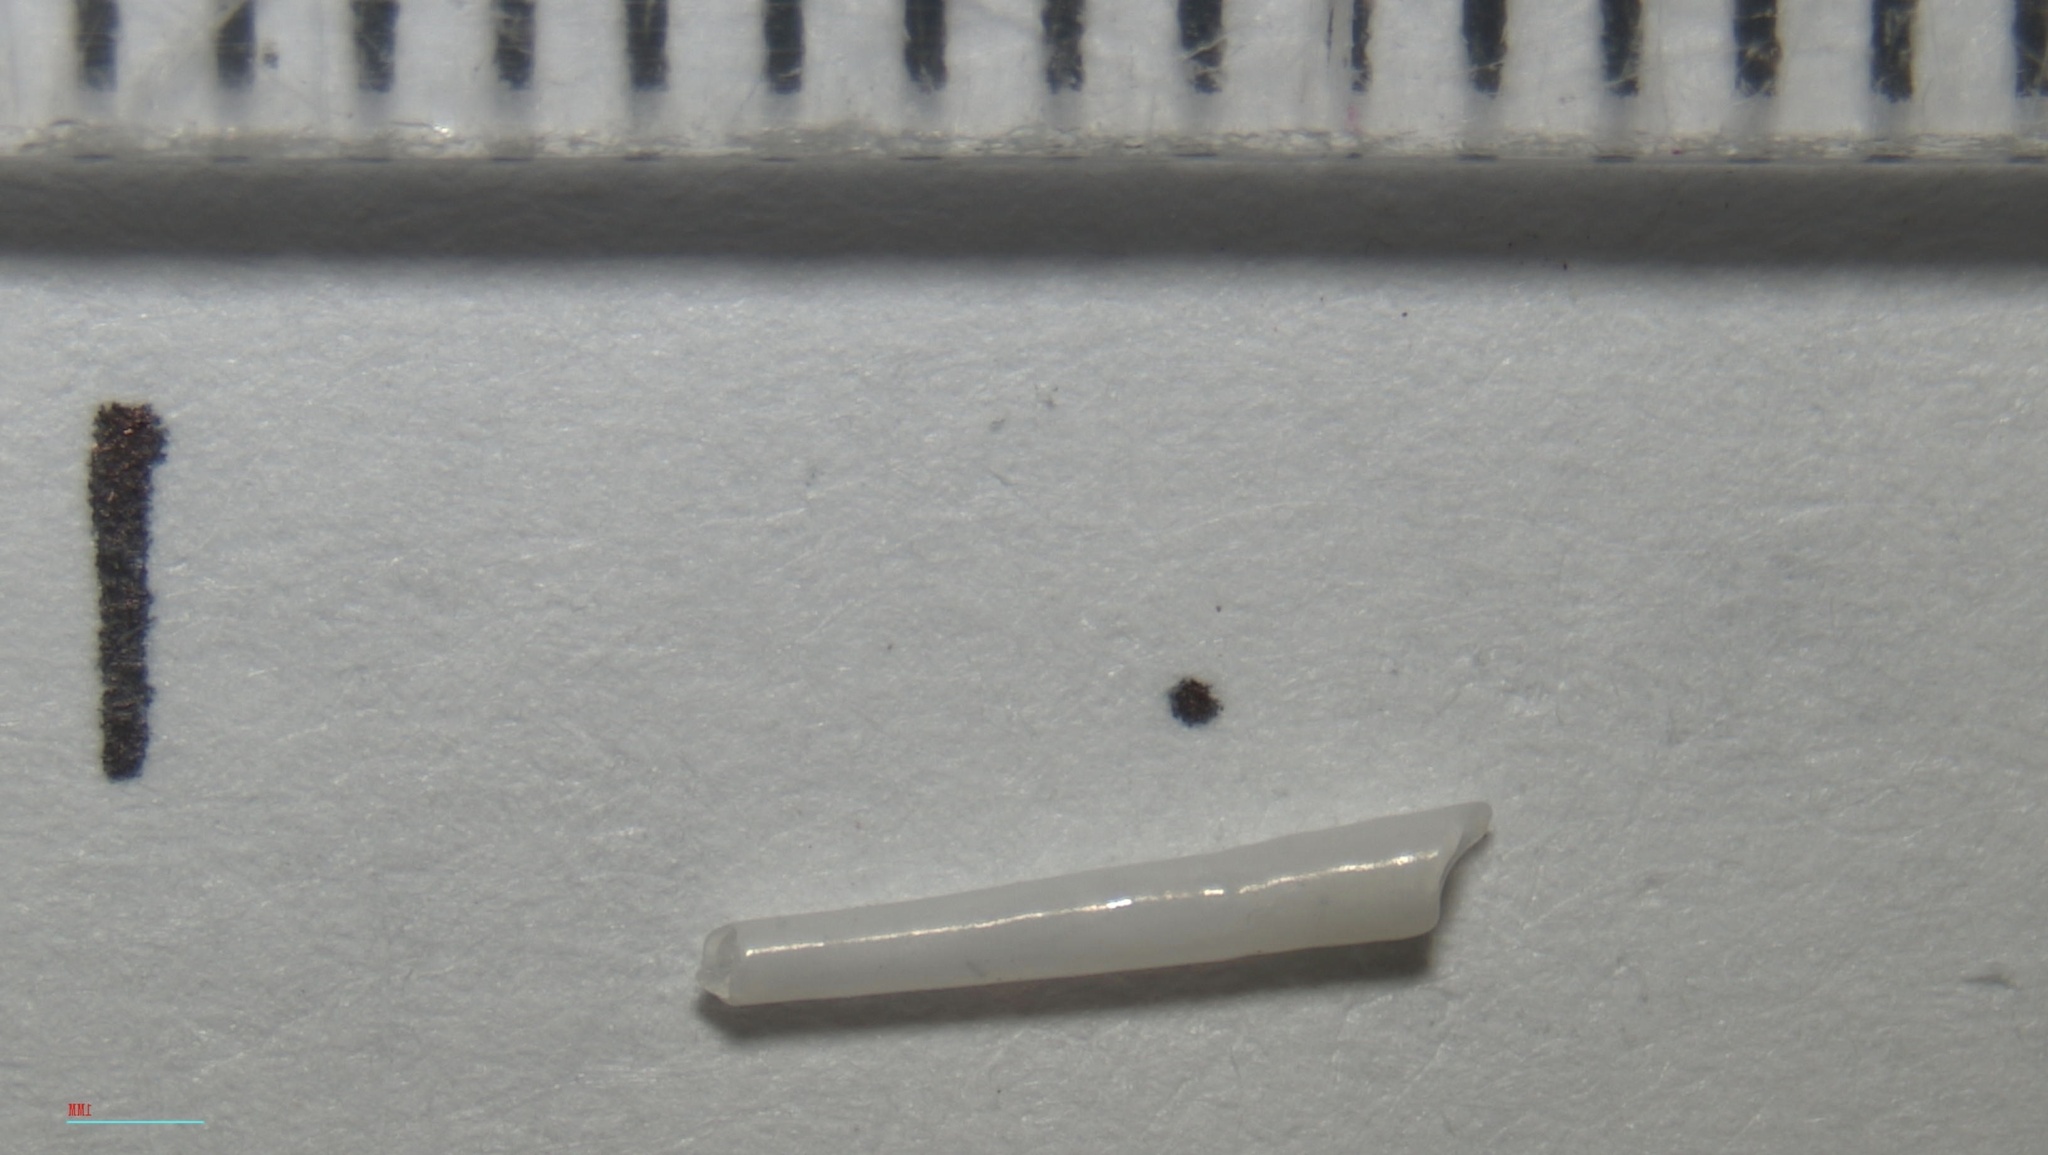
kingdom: Animalia
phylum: Mollusca
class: Scaphopoda
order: Dentaliida
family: Dentaliidae
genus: Graptacme
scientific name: Graptacme eborea
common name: Ivory tuskshell
